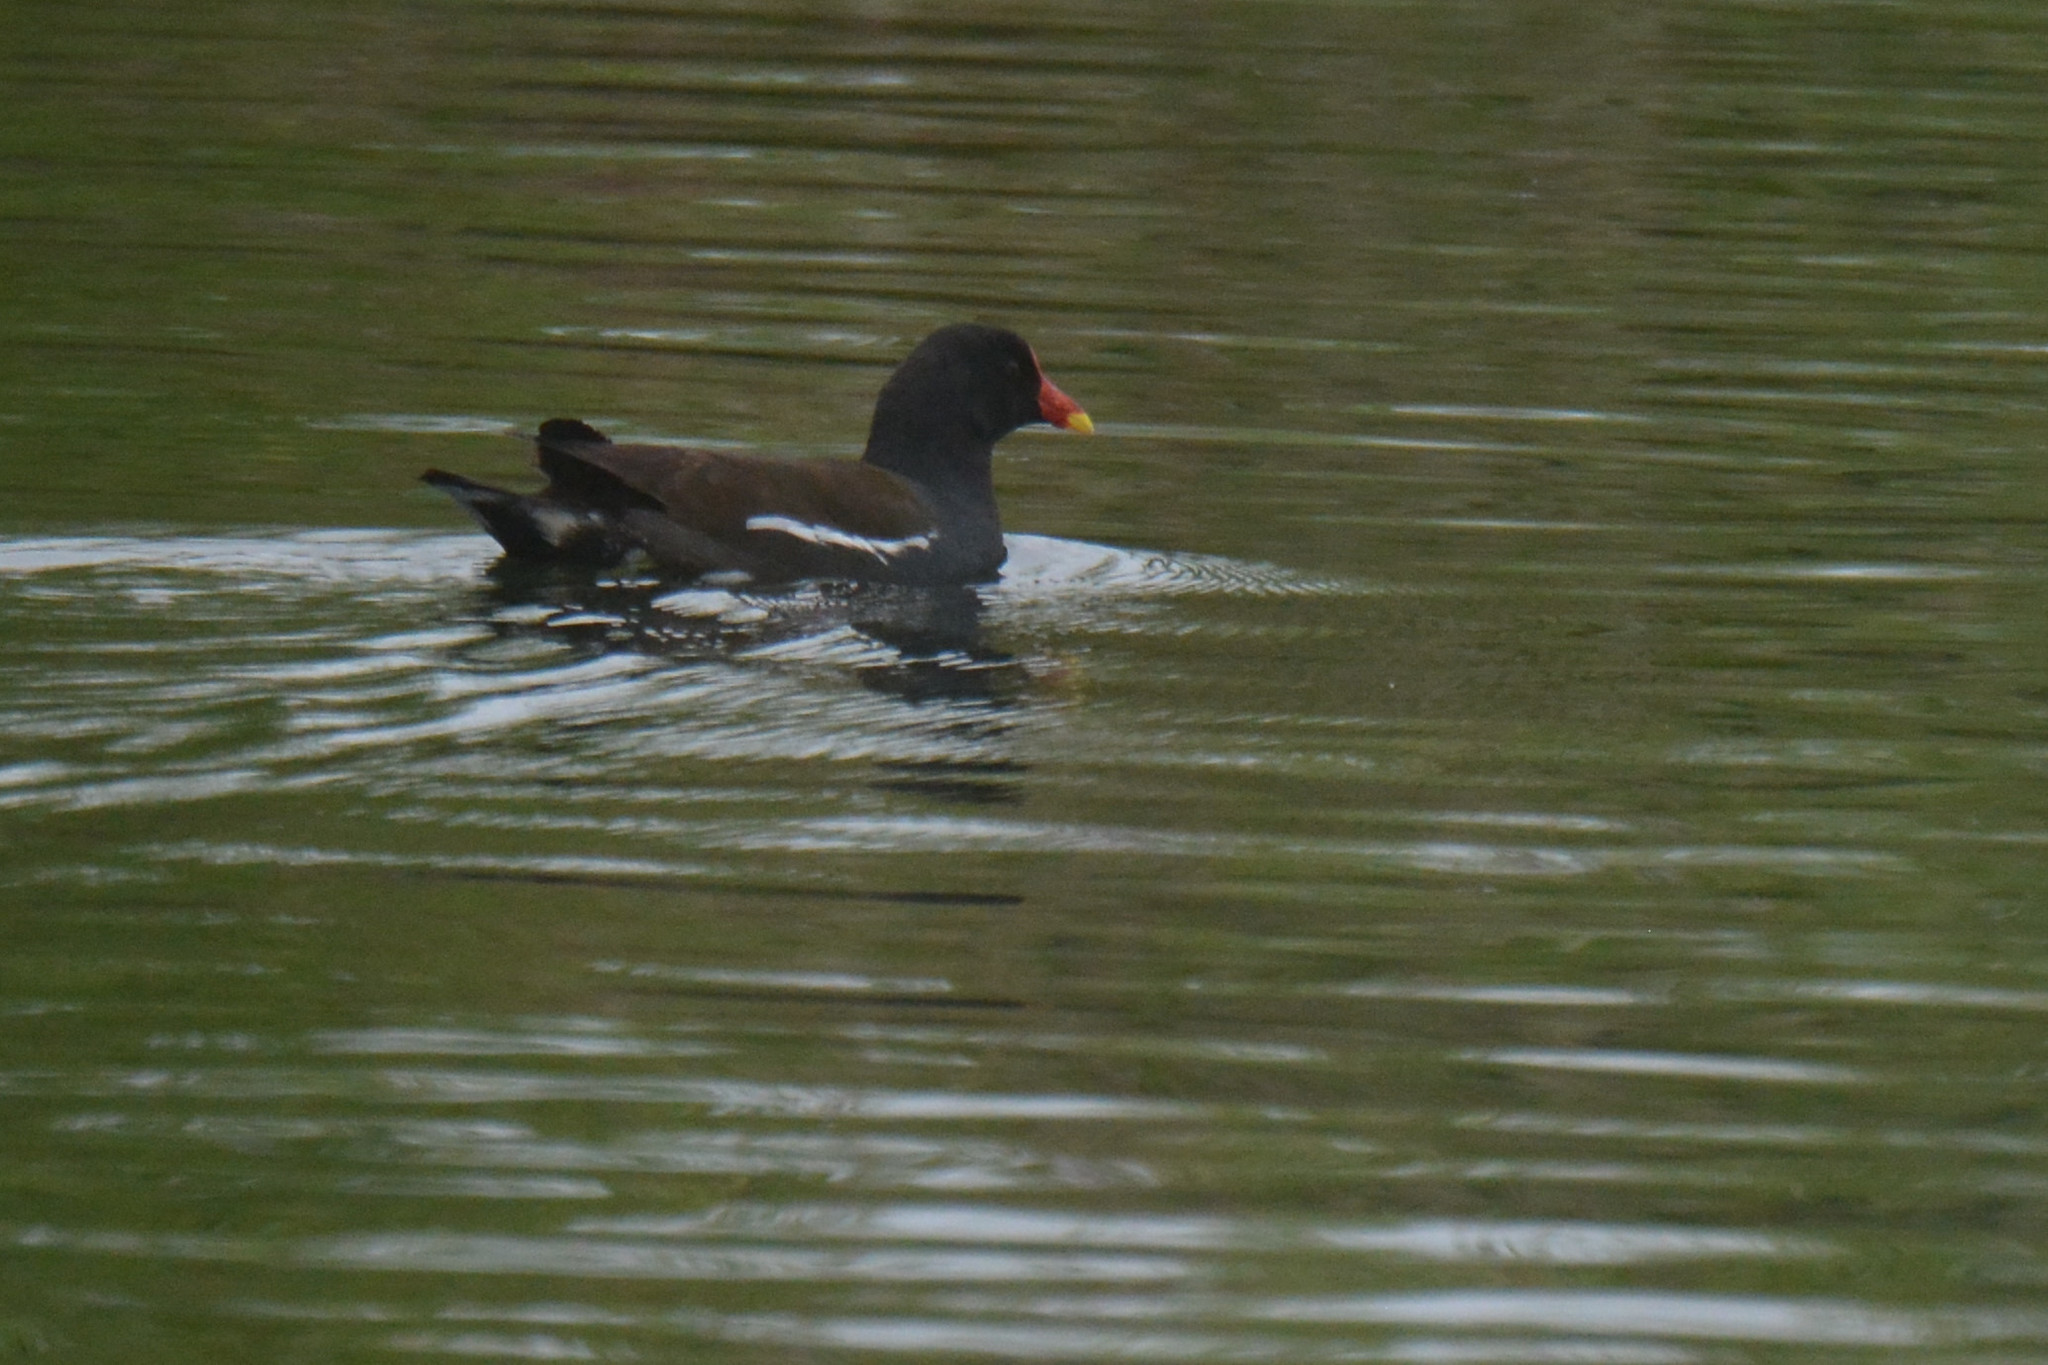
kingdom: Animalia
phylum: Chordata
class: Aves
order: Gruiformes
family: Rallidae
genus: Gallinula
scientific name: Gallinula chloropus
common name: Common moorhen
